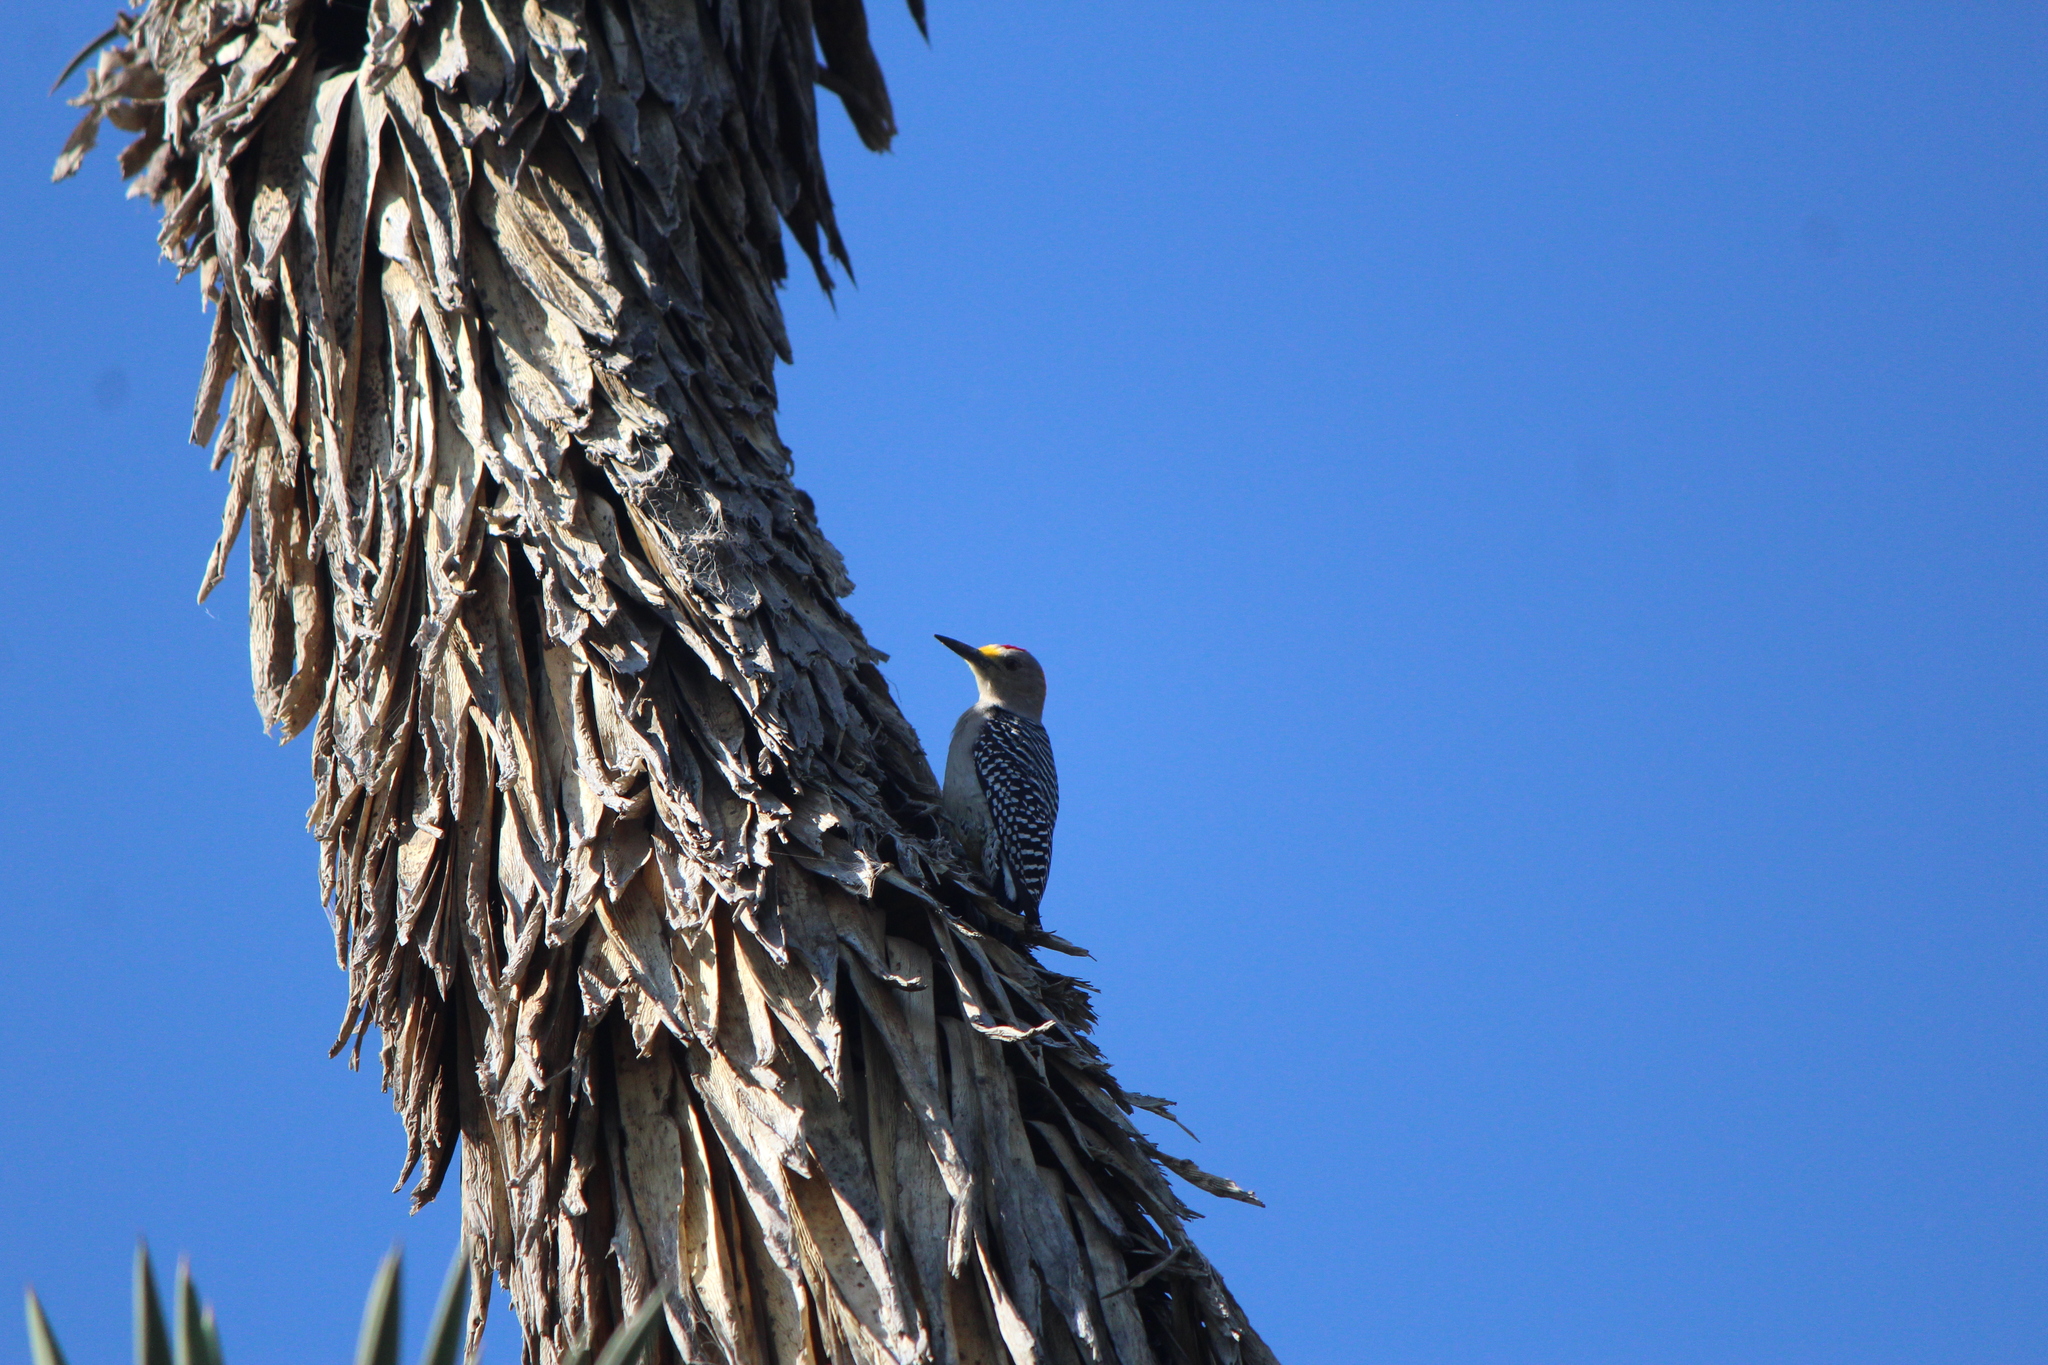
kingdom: Animalia
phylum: Chordata
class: Aves
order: Piciformes
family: Picidae
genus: Melanerpes
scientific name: Melanerpes aurifrons
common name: Golden-fronted woodpecker
